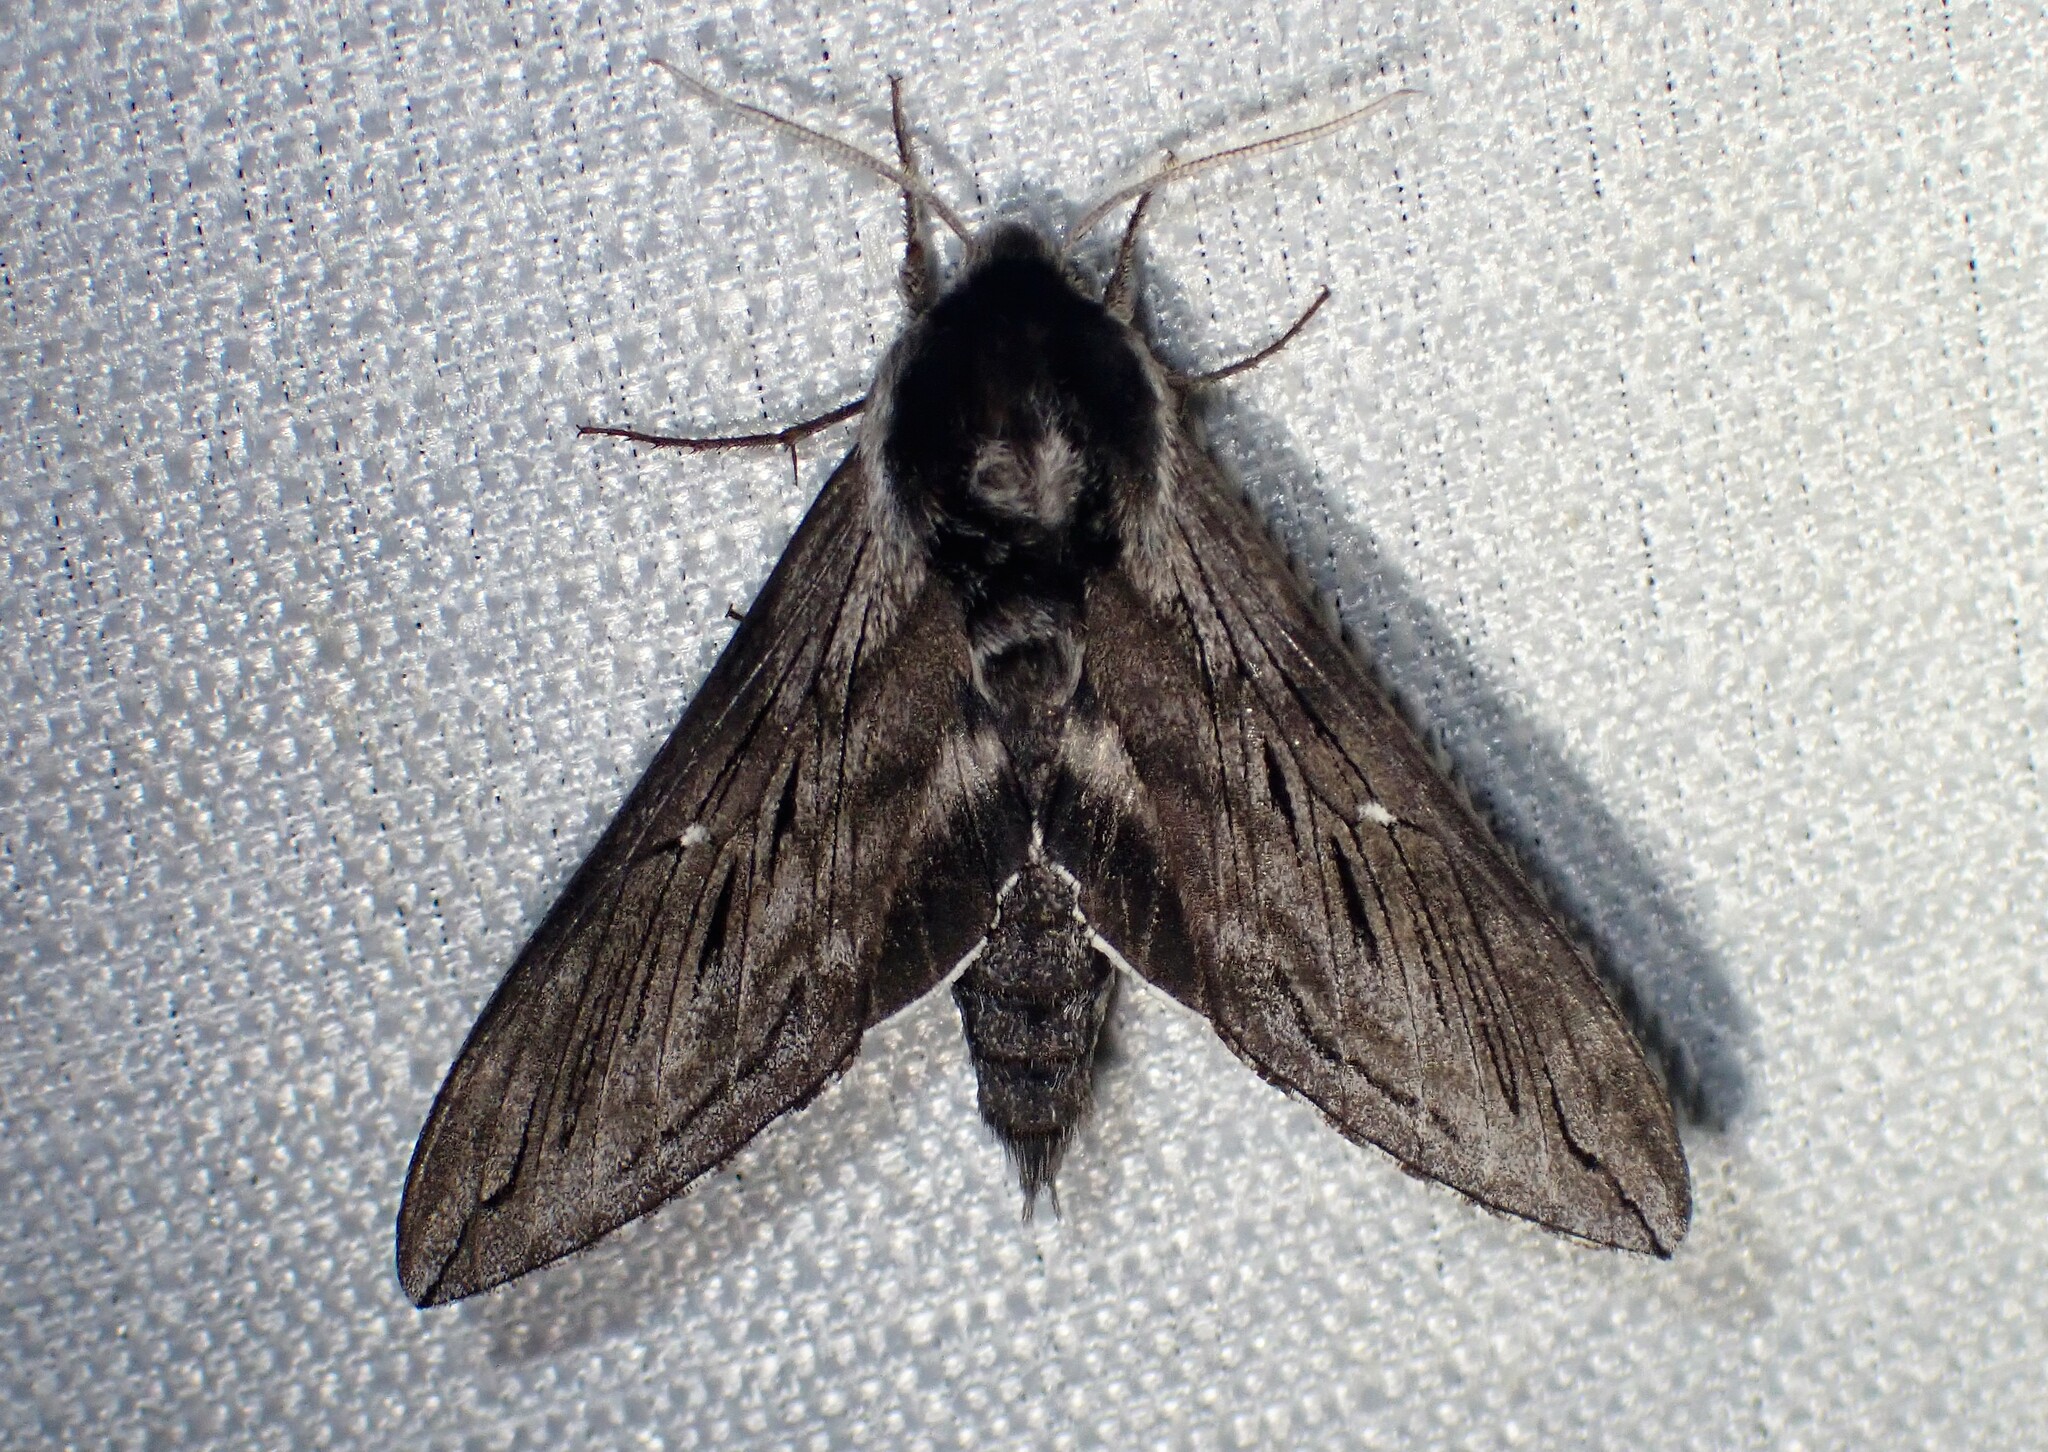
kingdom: Animalia
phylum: Arthropoda
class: Insecta
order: Lepidoptera
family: Sphingidae
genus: Sphinx
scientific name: Sphinx poecila
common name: Northern apple sphinx
